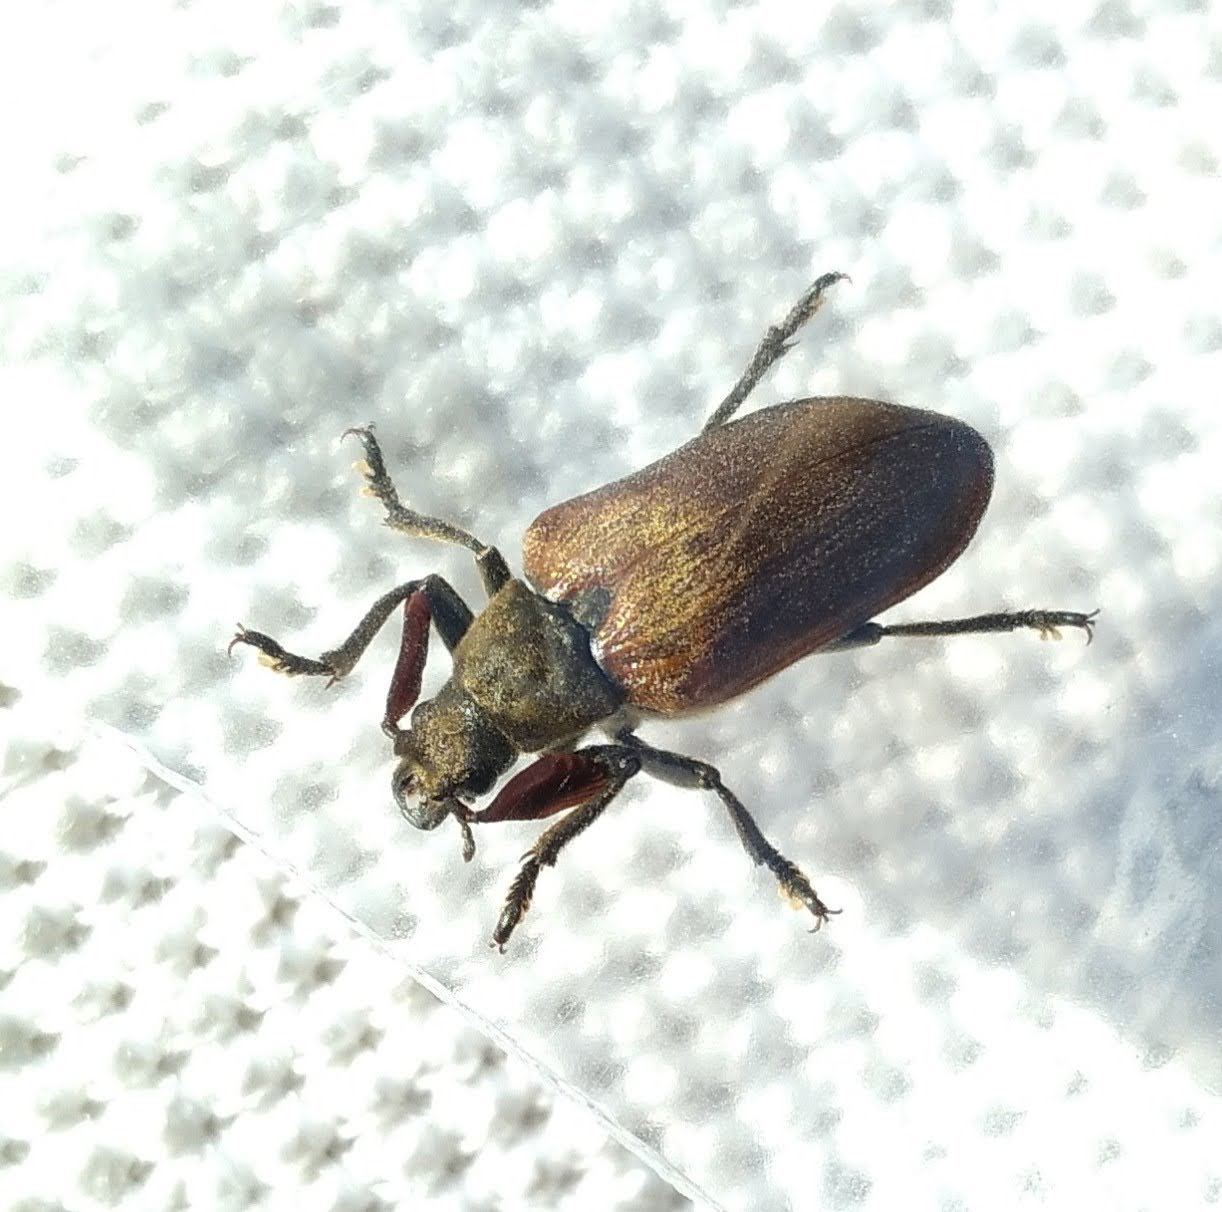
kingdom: Animalia
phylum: Arthropoda
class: Insecta
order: Coleoptera
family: Rhipiceridae
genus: Sandalus
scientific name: Sandalus niger
